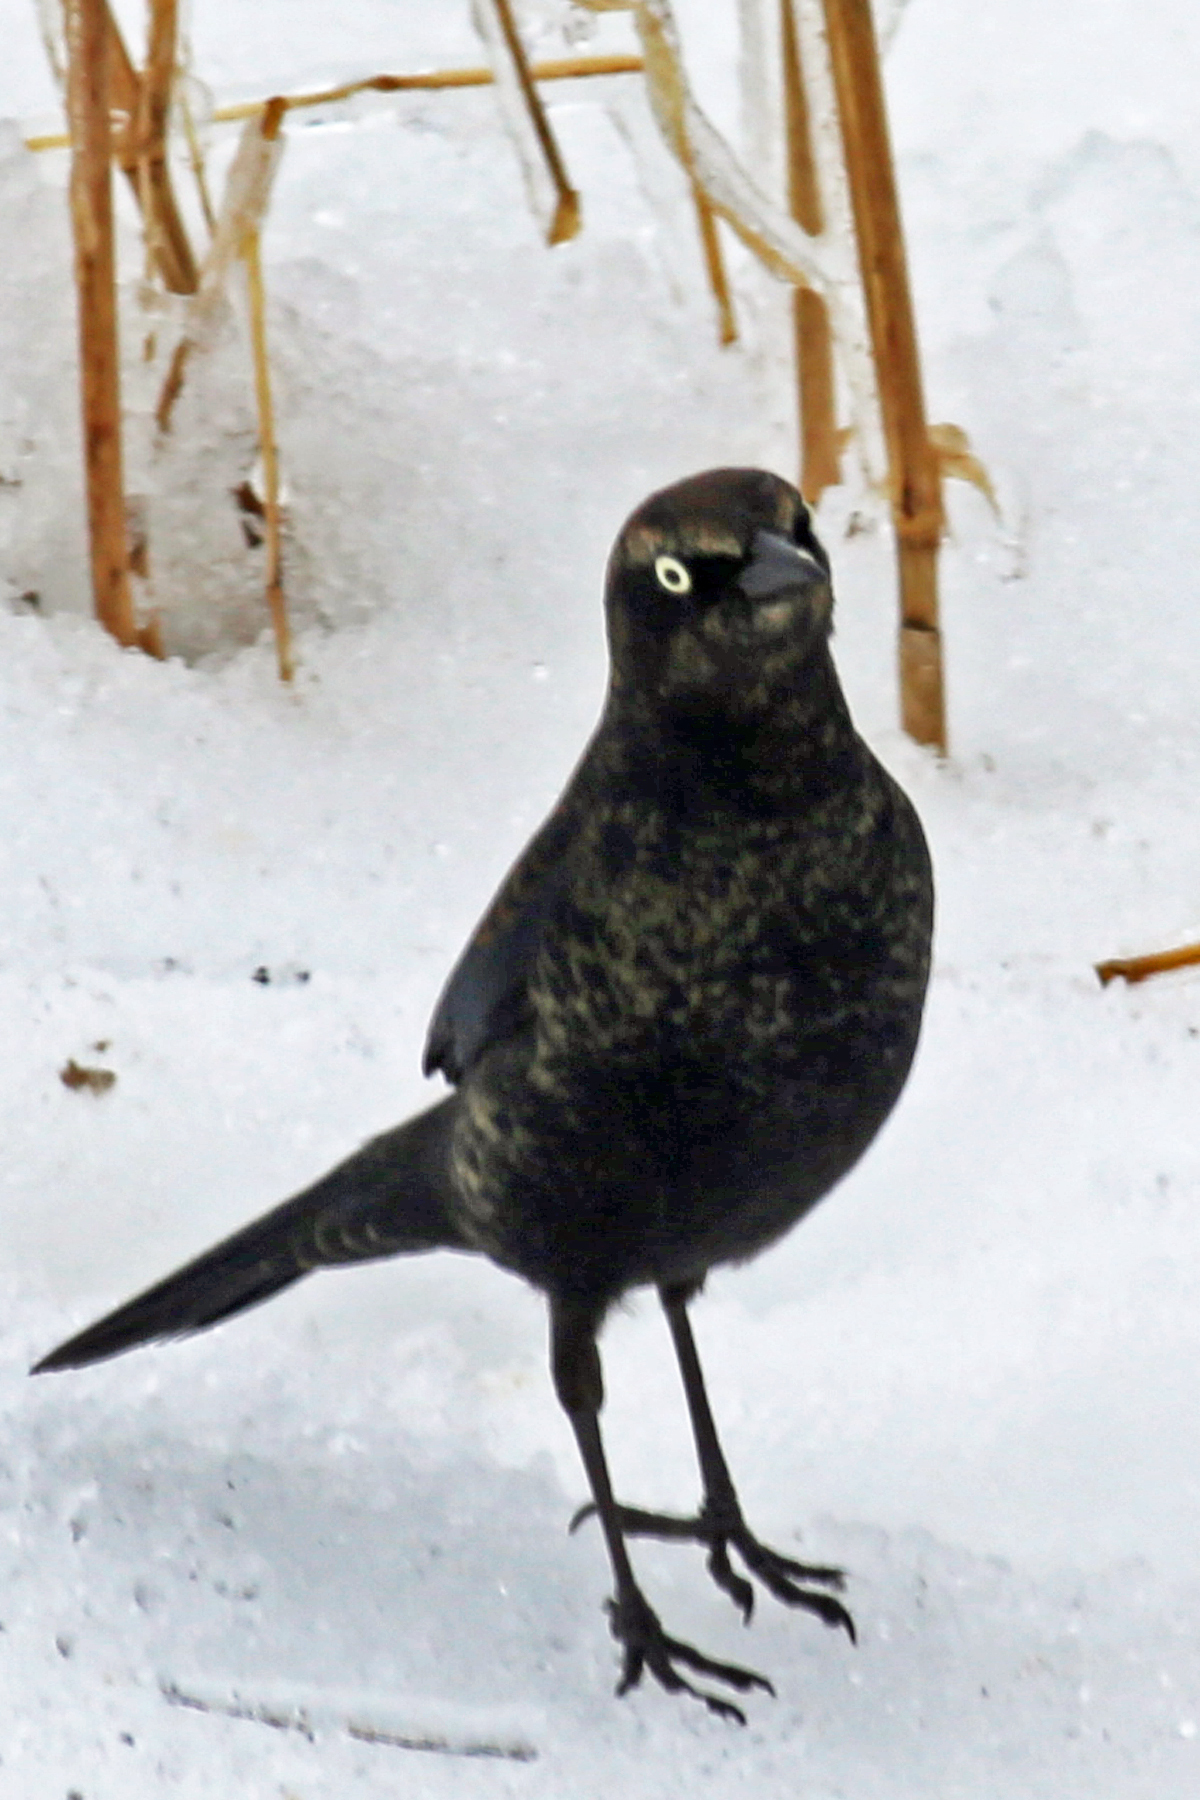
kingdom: Animalia
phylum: Chordata
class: Aves
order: Passeriformes
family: Icteridae
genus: Euphagus
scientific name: Euphagus carolinus
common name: Rusty blackbird
